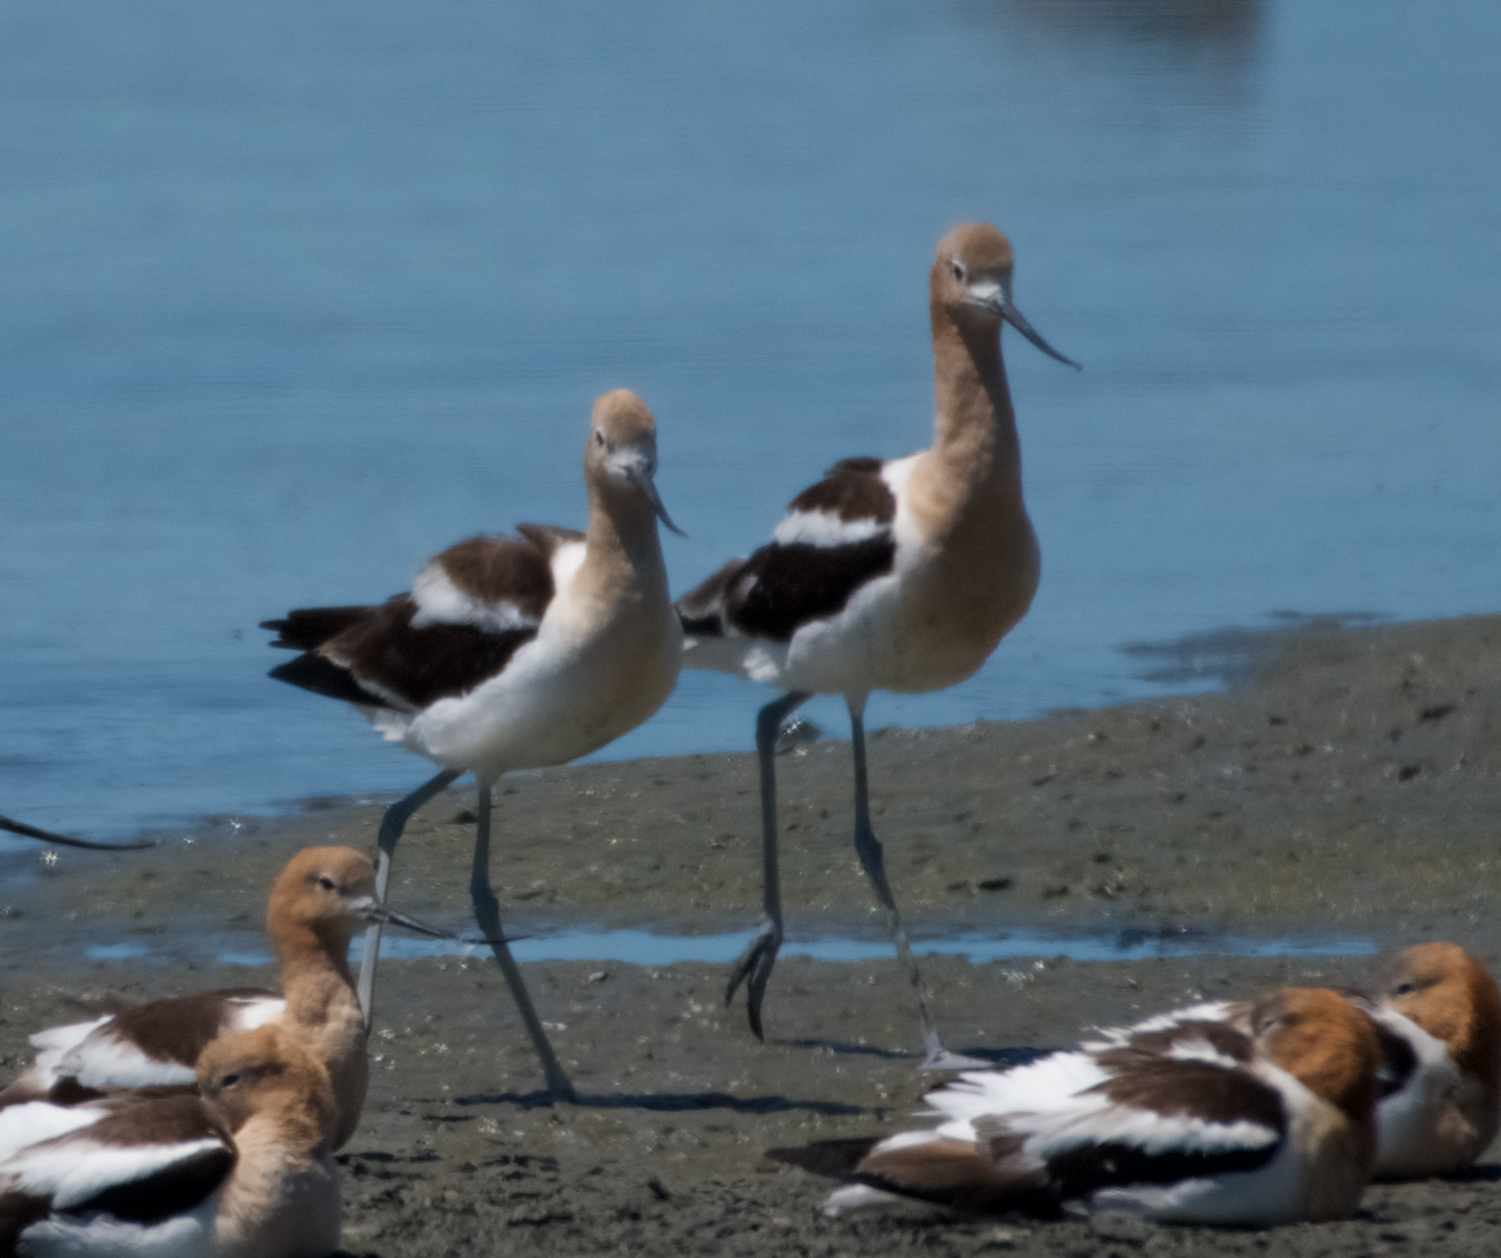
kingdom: Animalia
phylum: Chordata
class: Aves
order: Charadriiformes
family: Recurvirostridae
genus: Recurvirostra
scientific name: Recurvirostra americana
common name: American avocet
